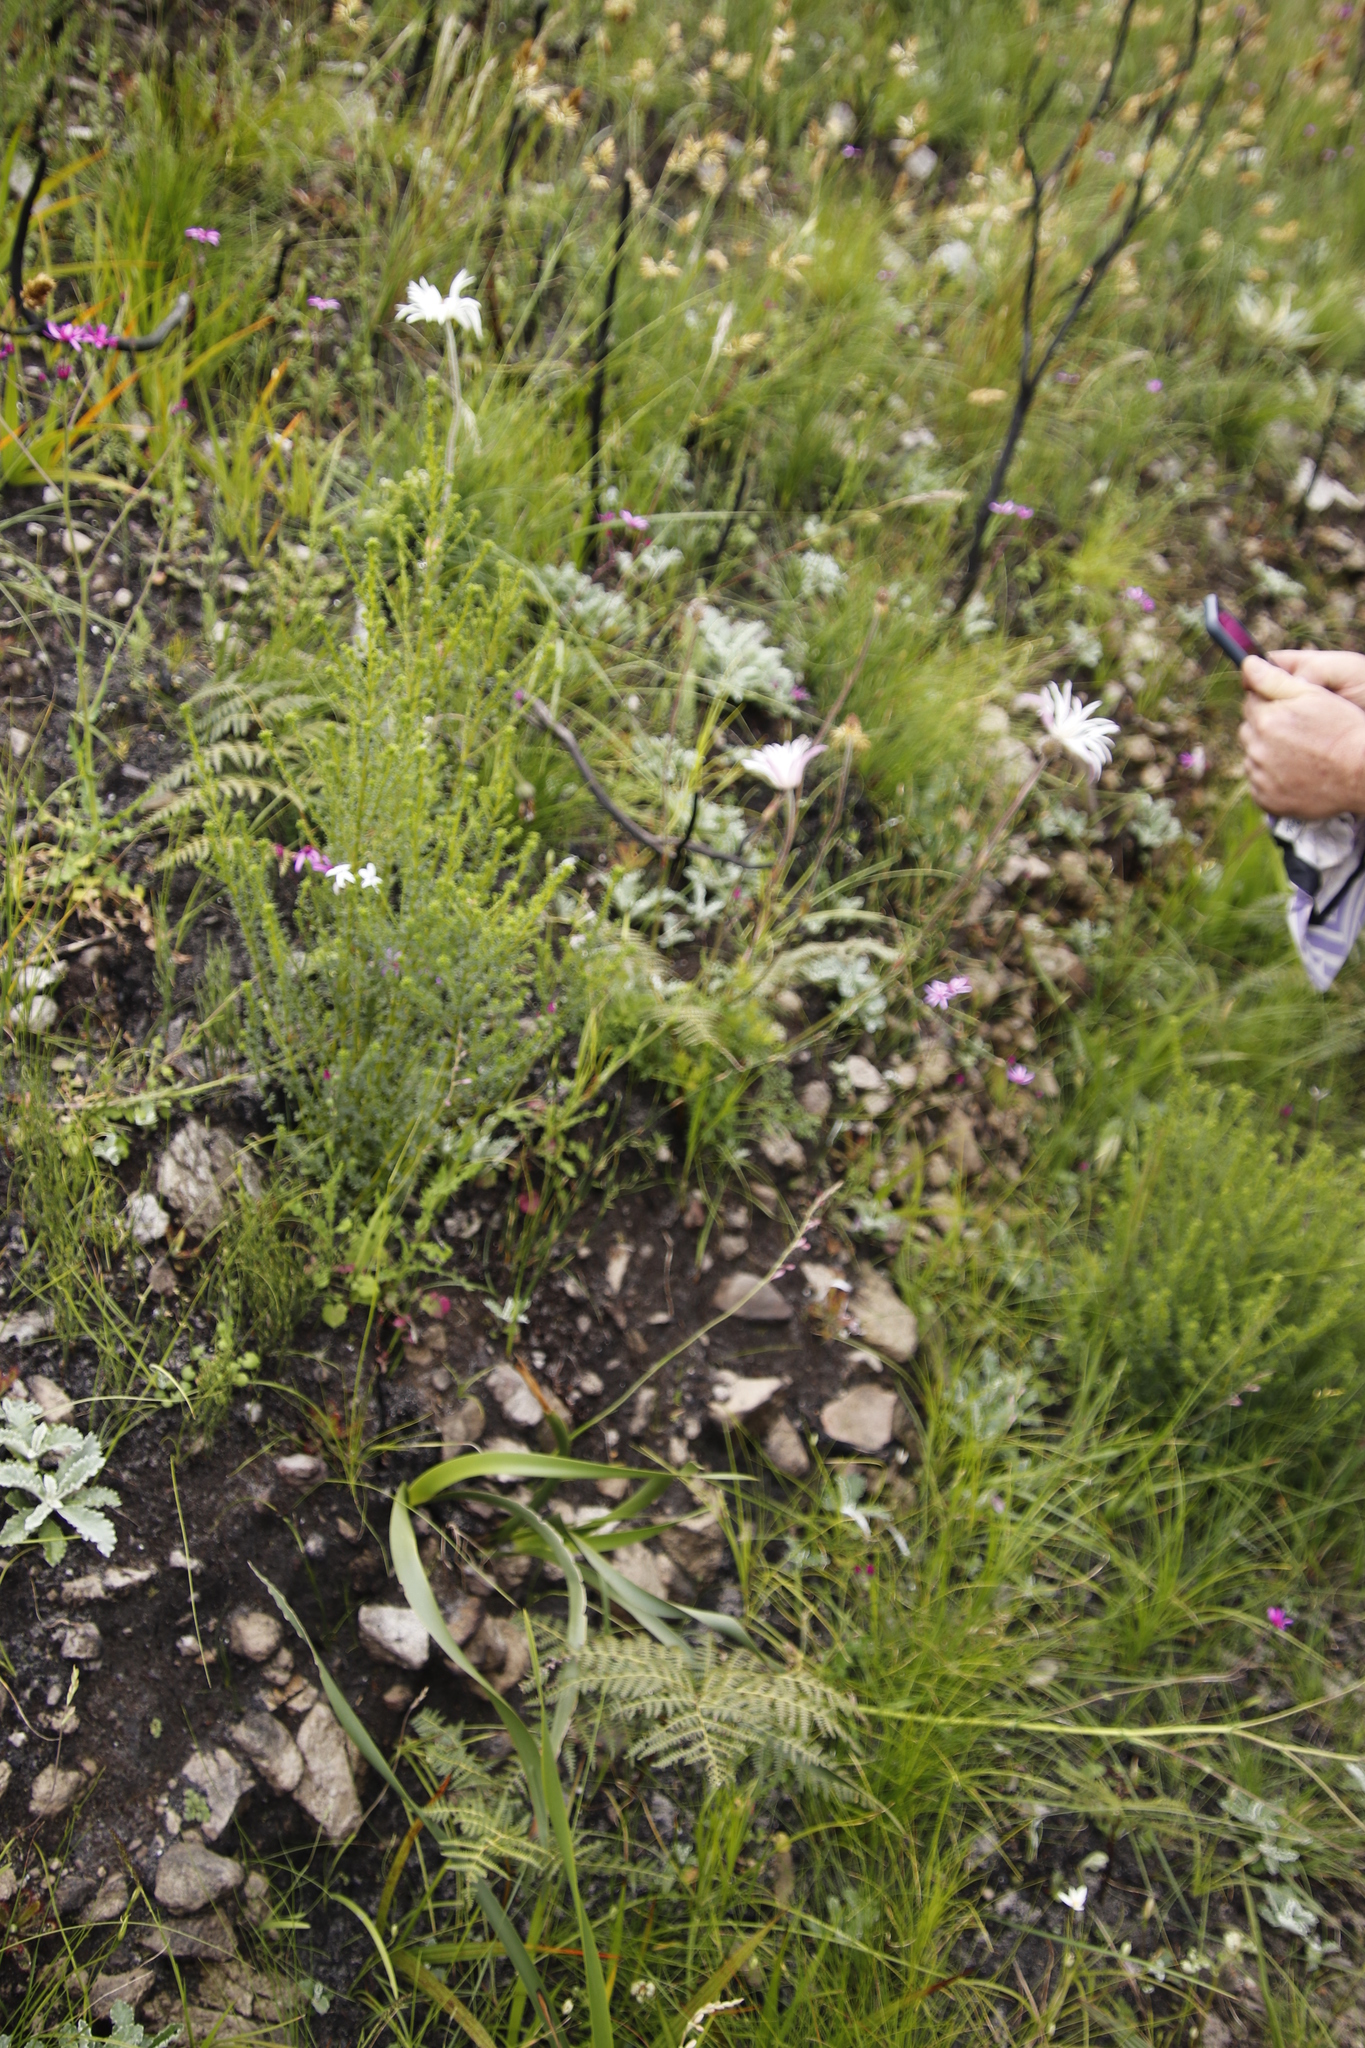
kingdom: Plantae
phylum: Tracheophyta
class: Magnoliopsida
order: Ranunculales
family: Ranunculaceae
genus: Knowltonia
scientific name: Knowltonia tenuifolia
